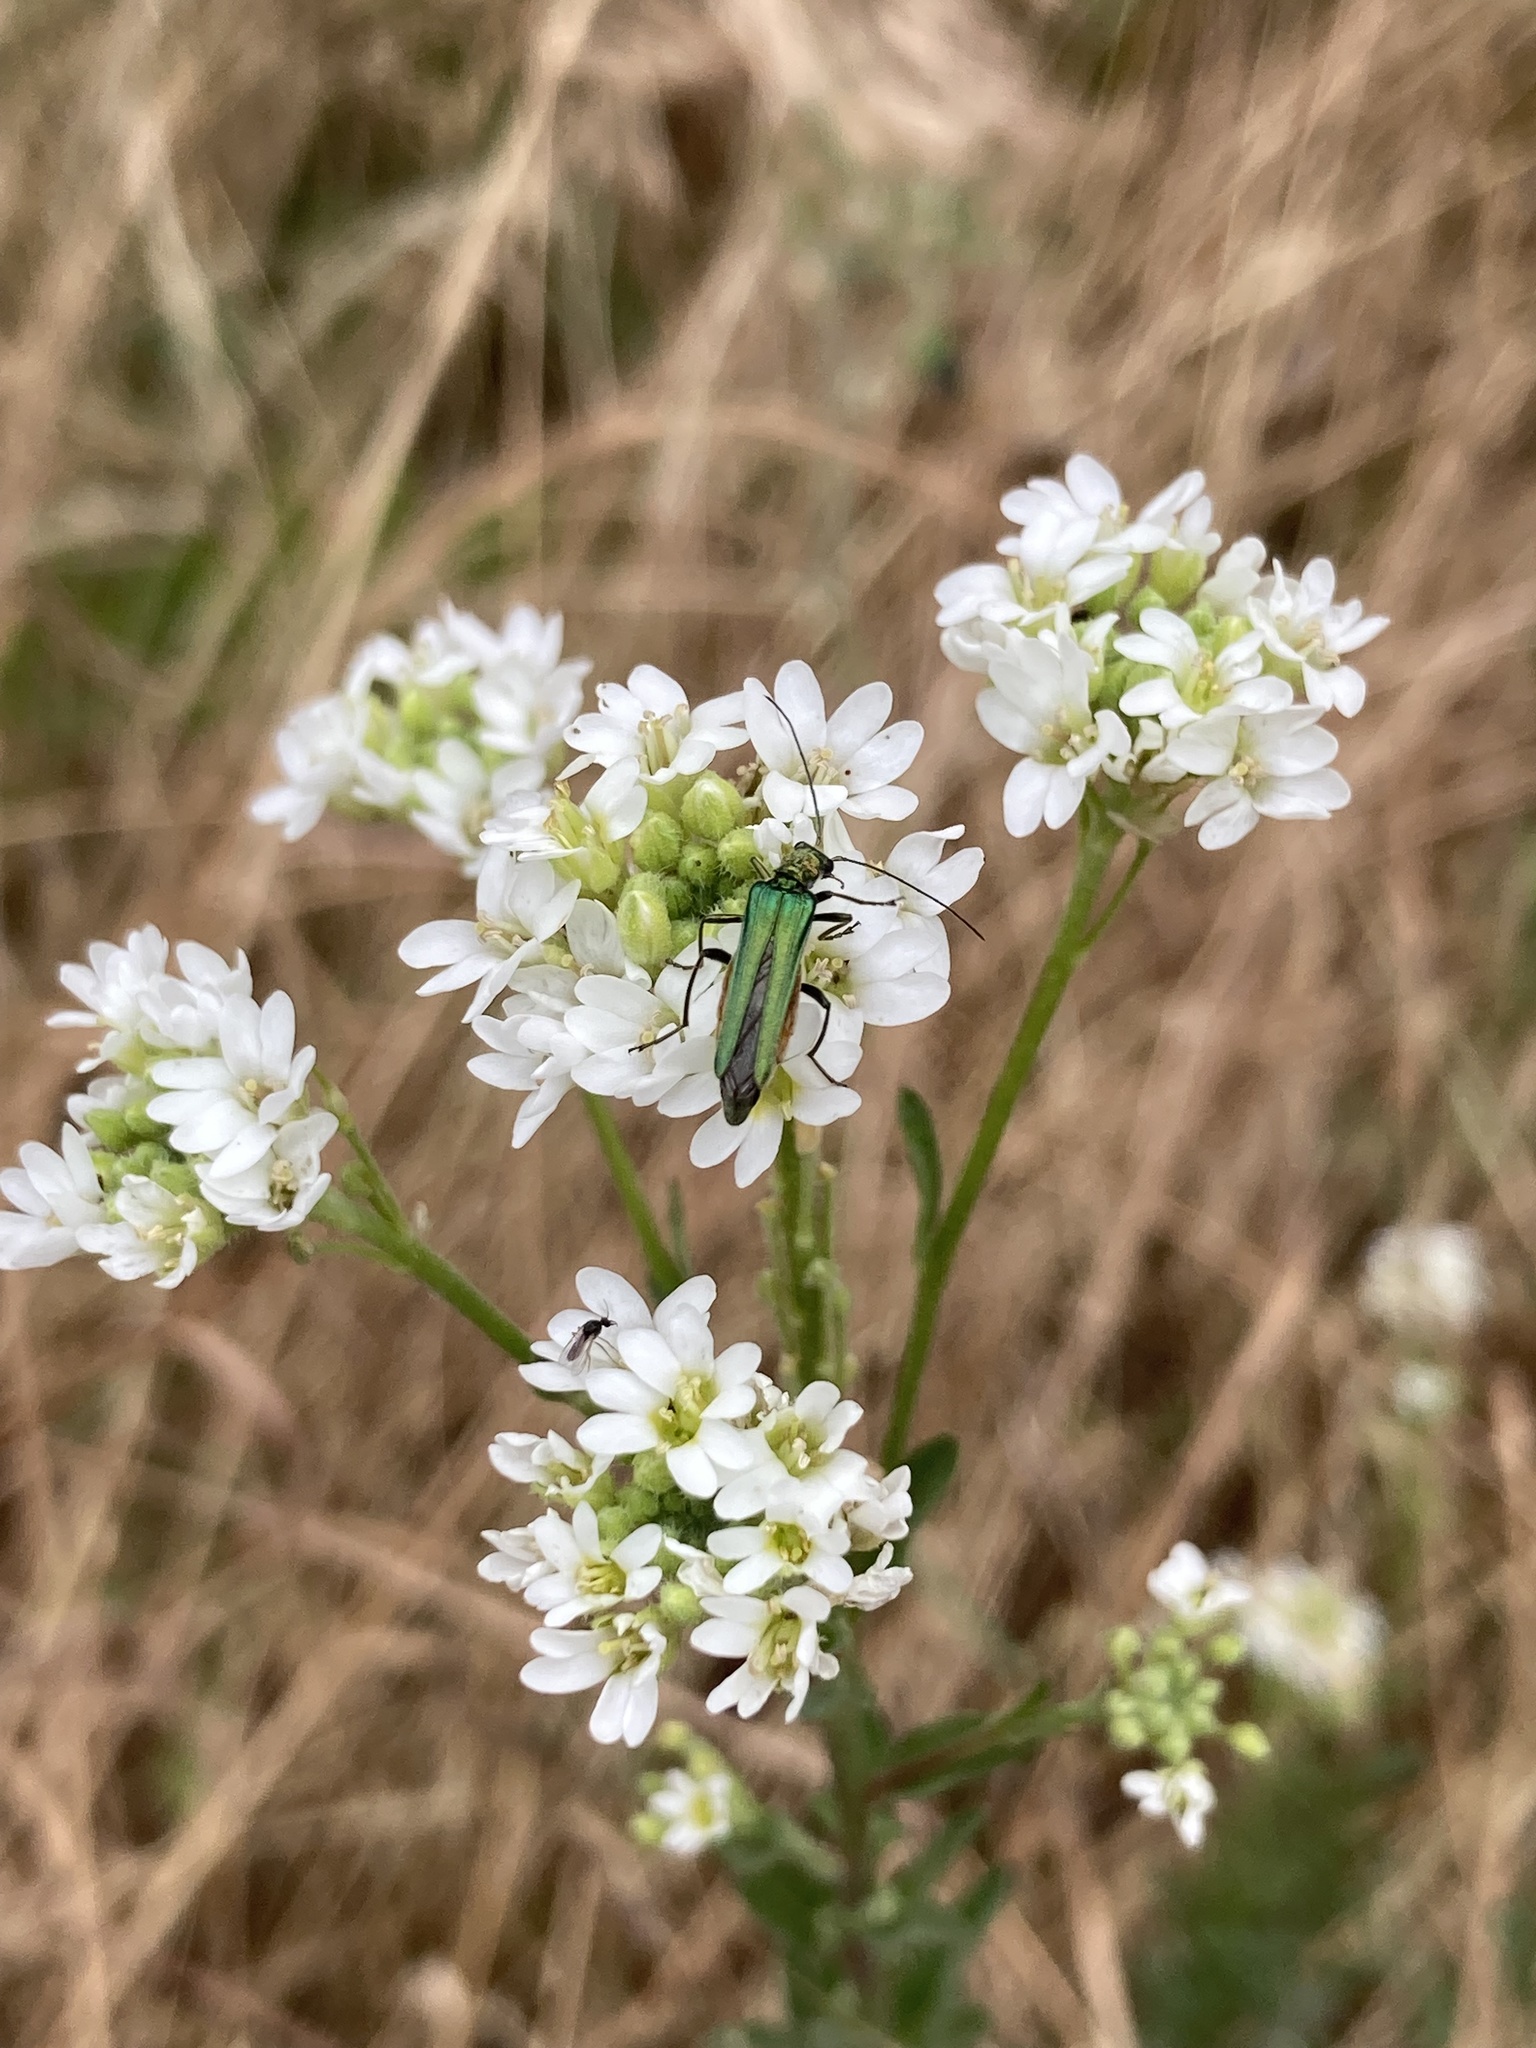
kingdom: Animalia
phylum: Arthropoda
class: Insecta
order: Coleoptera
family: Oedemeridae
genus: Oedemera
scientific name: Oedemera nobilis
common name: Swollen-thighed beetle
